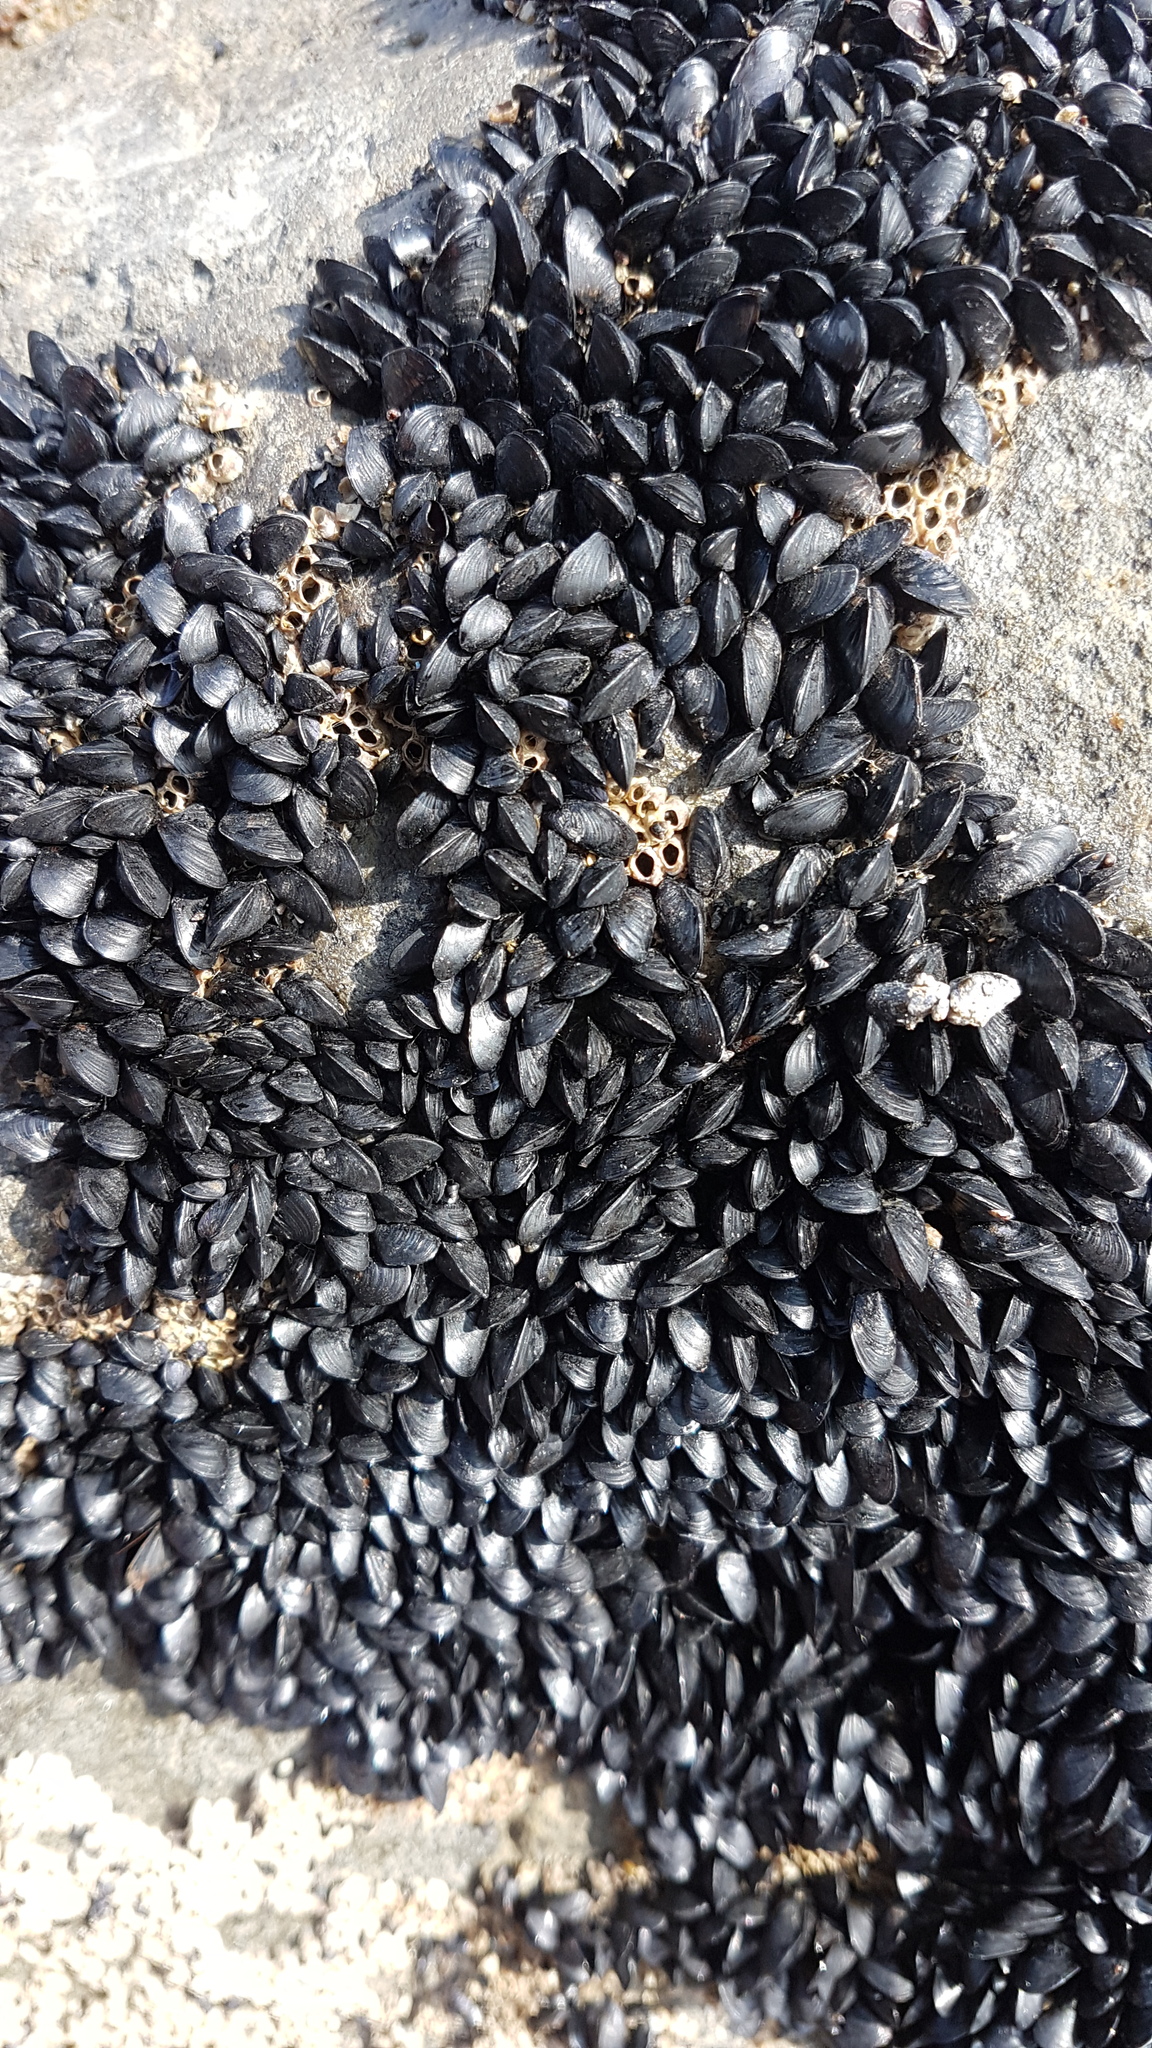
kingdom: Animalia
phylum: Mollusca
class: Bivalvia
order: Mytilida
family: Mytilidae
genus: Xenostrobus
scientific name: Xenostrobus neozelanicus
